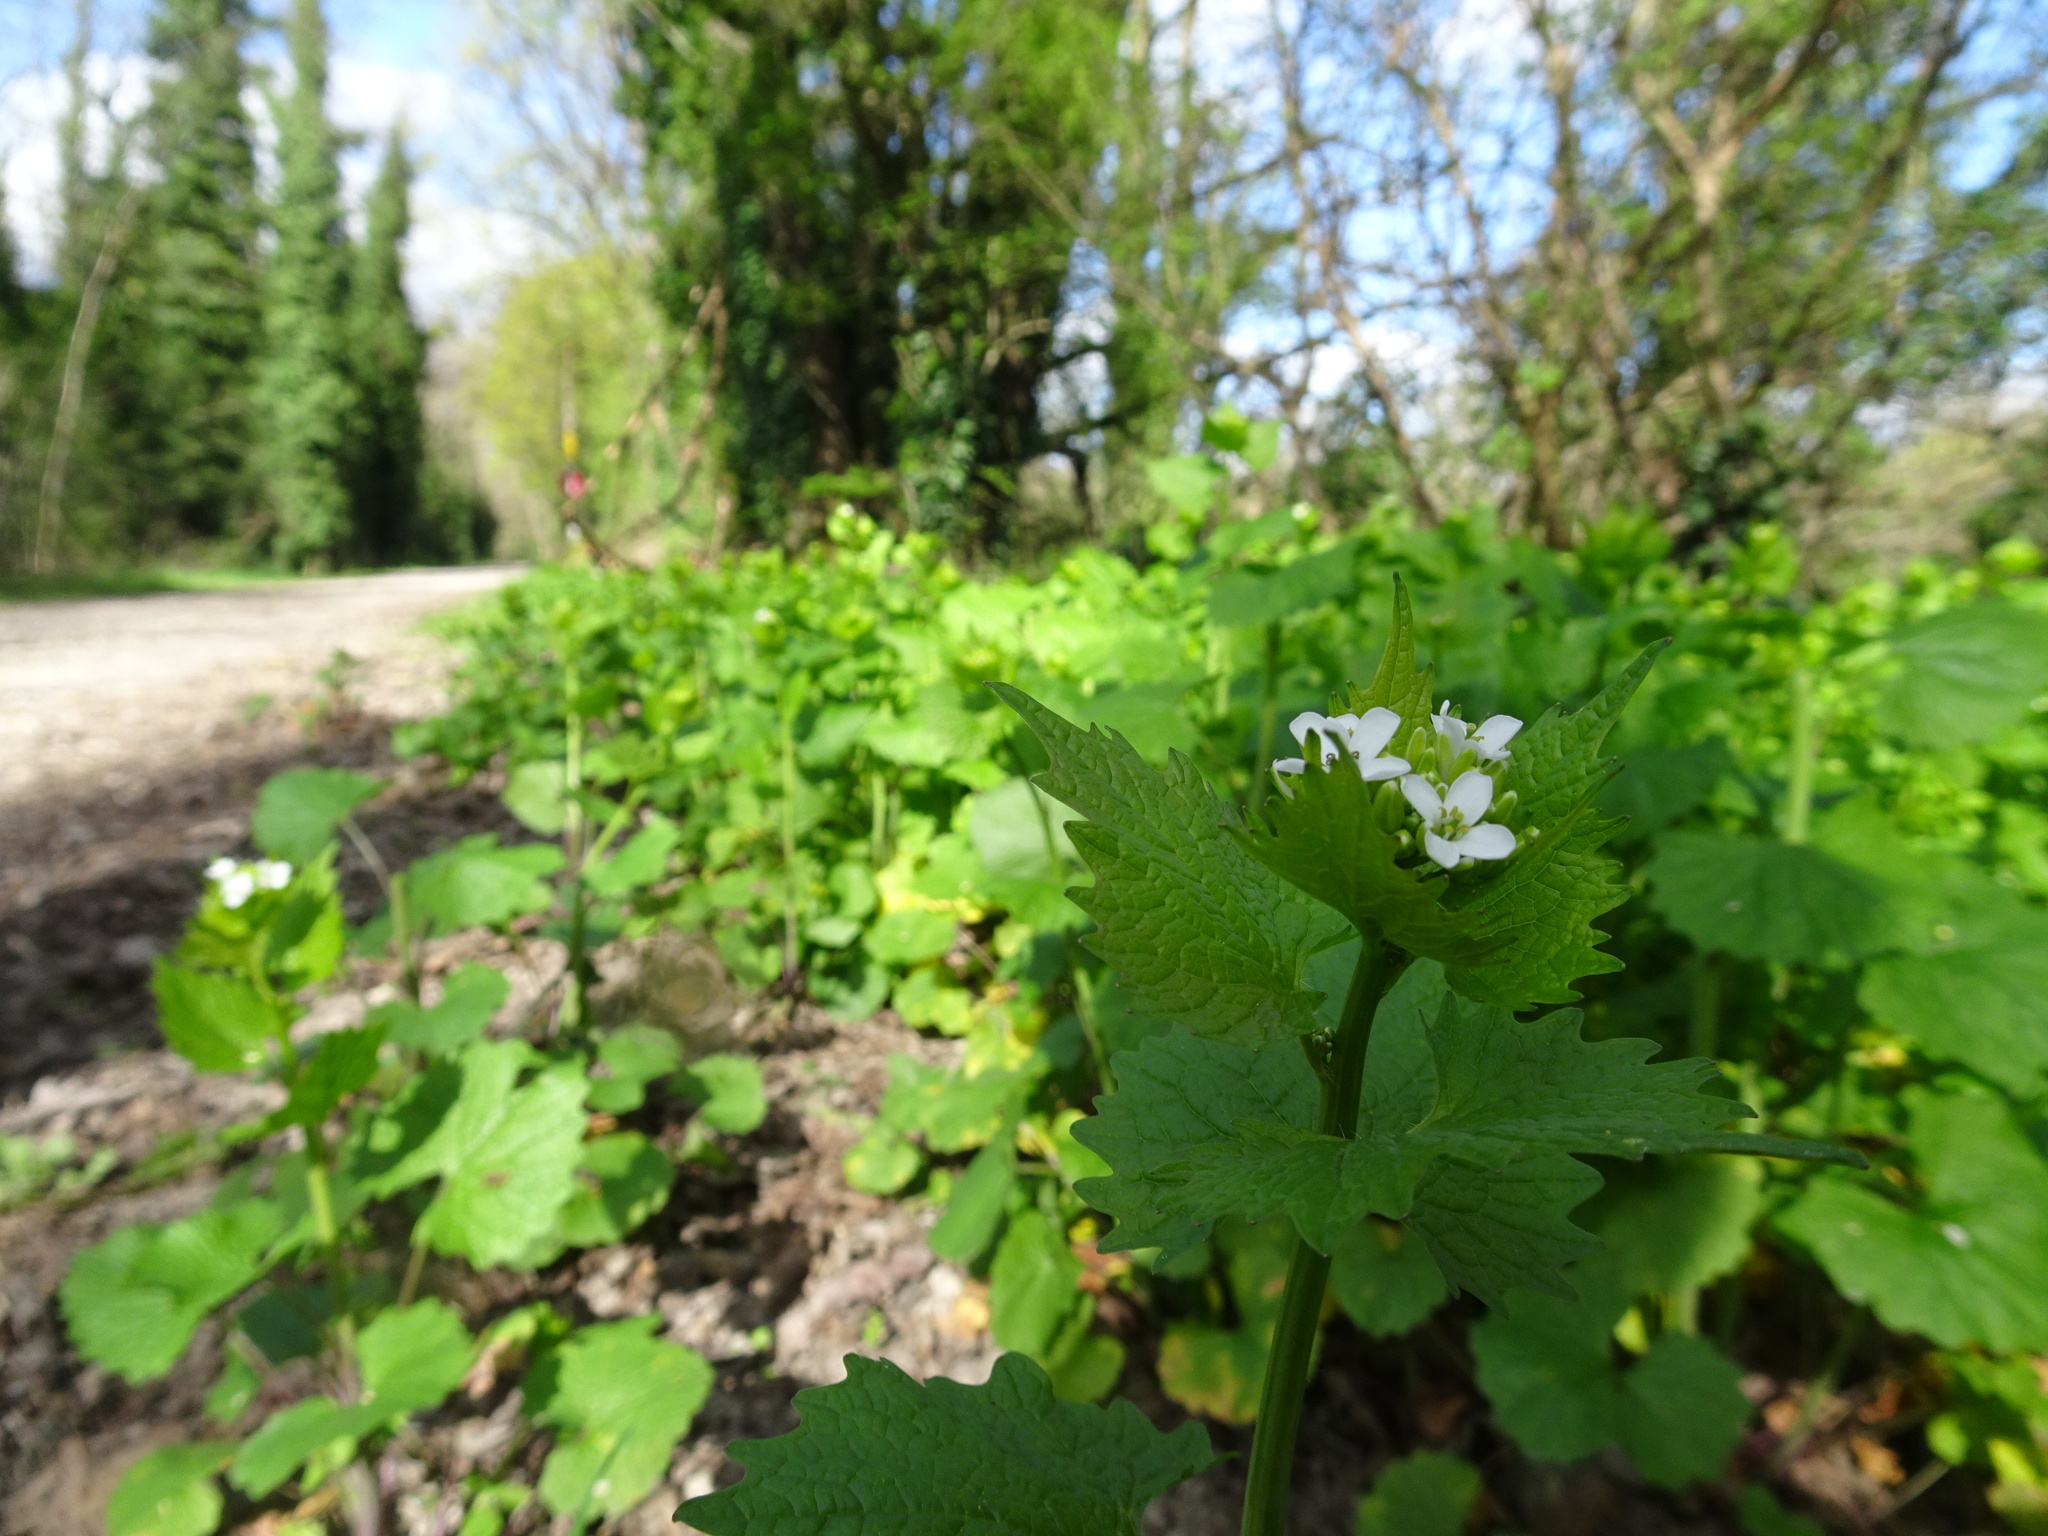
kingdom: Plantae
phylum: Tracheophyta
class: Magnoliopsida
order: Brassicales
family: Brassicaceae
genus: Alliaria
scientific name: Alliaria petiolata
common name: Garlic mustard
